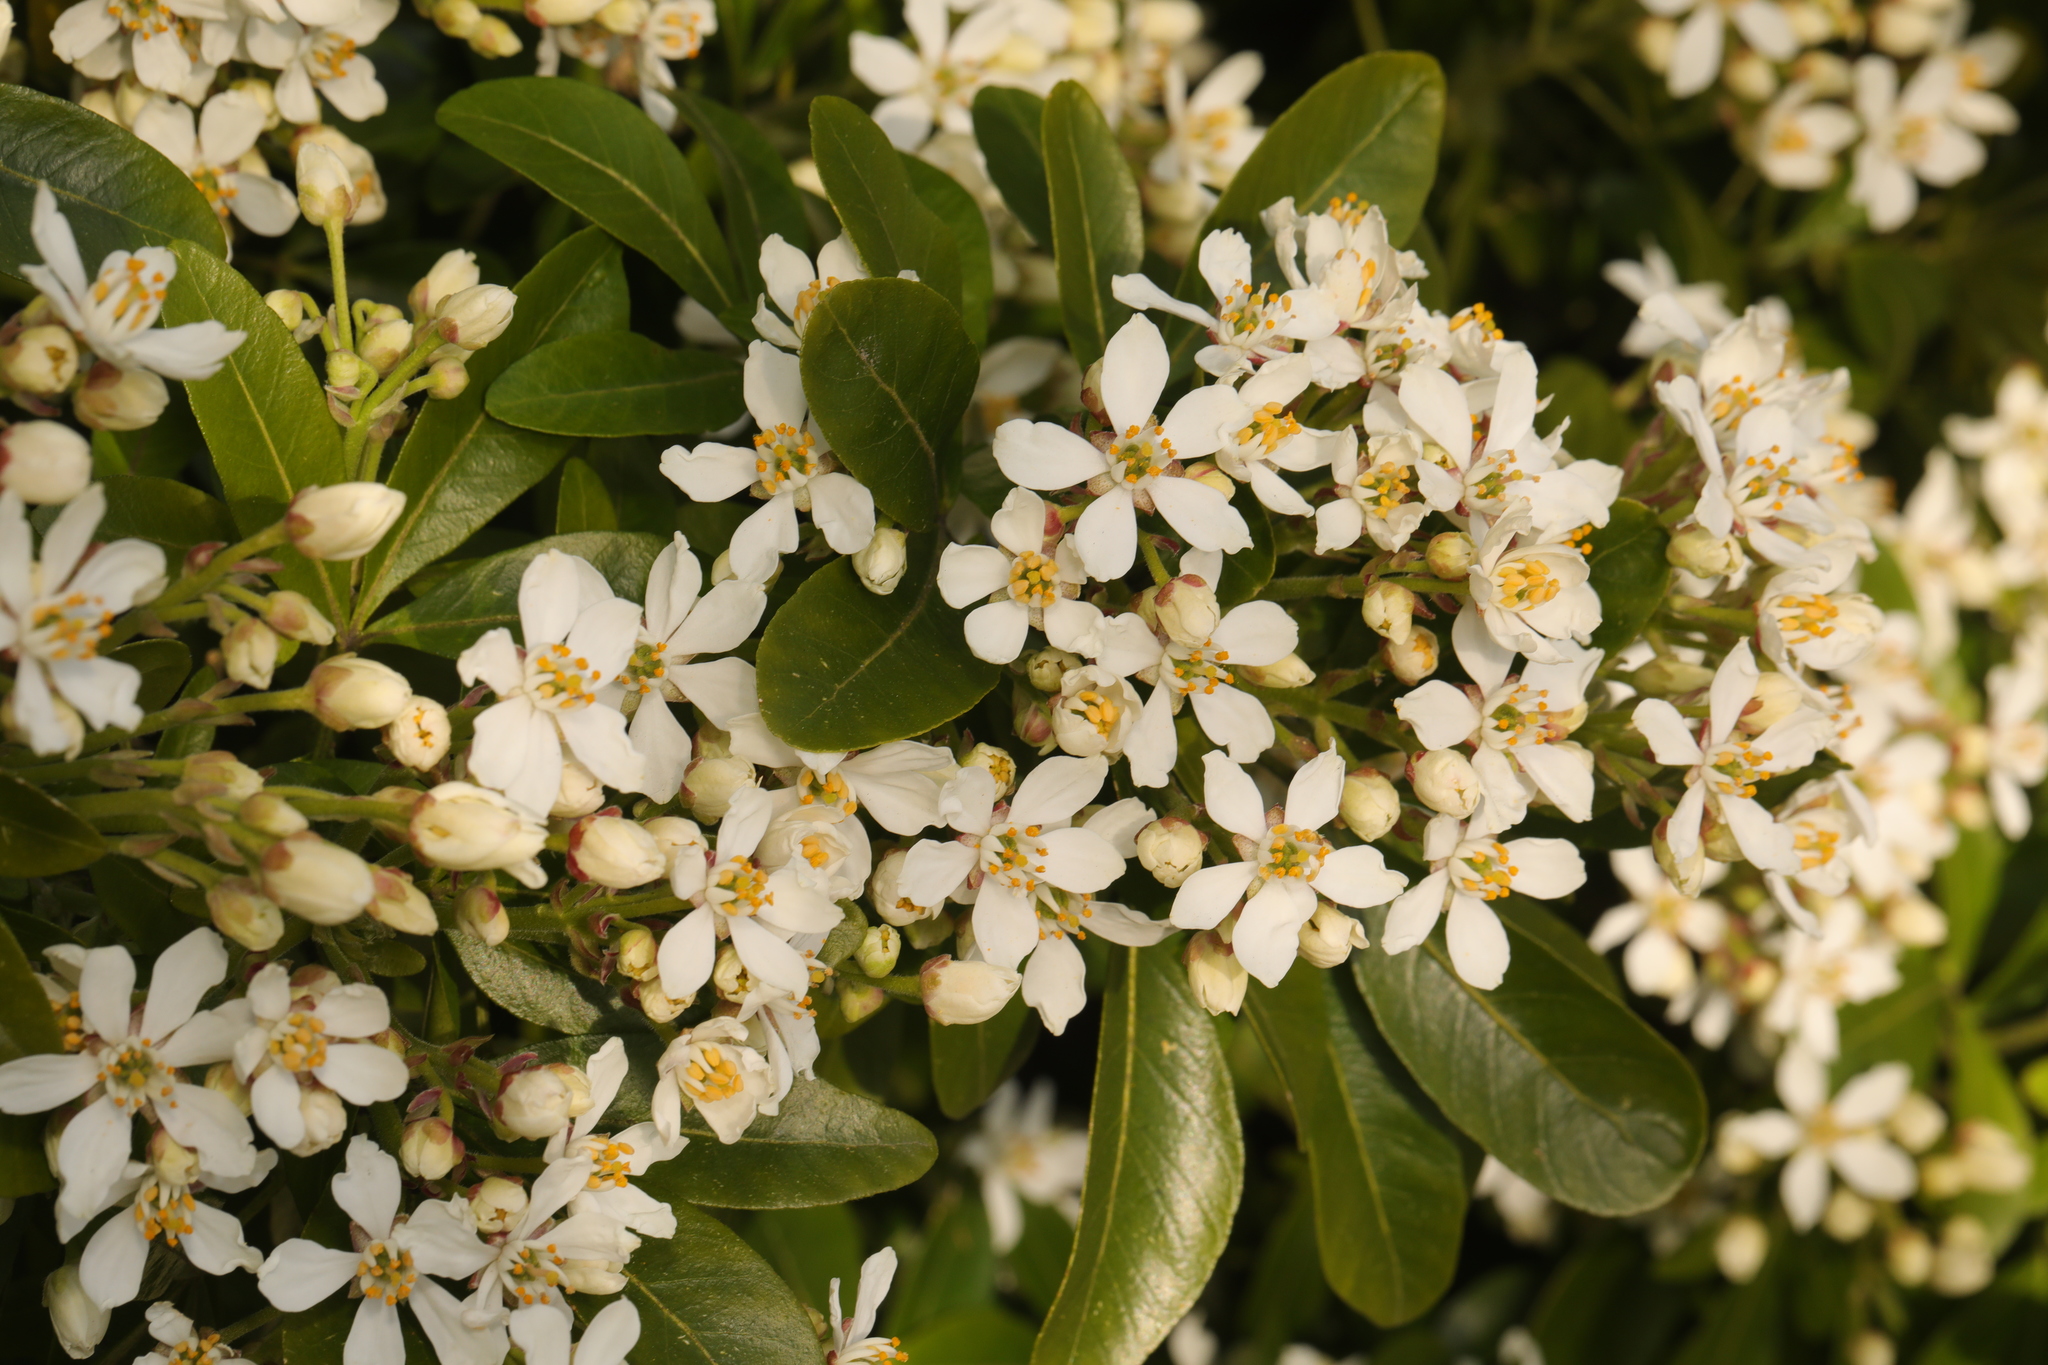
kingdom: Plantae
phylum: Tracheophyta
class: Magnoliopsida
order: Sapindales
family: Rutaceae
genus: Choisya
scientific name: Choisya ternata
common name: Mexican orange
